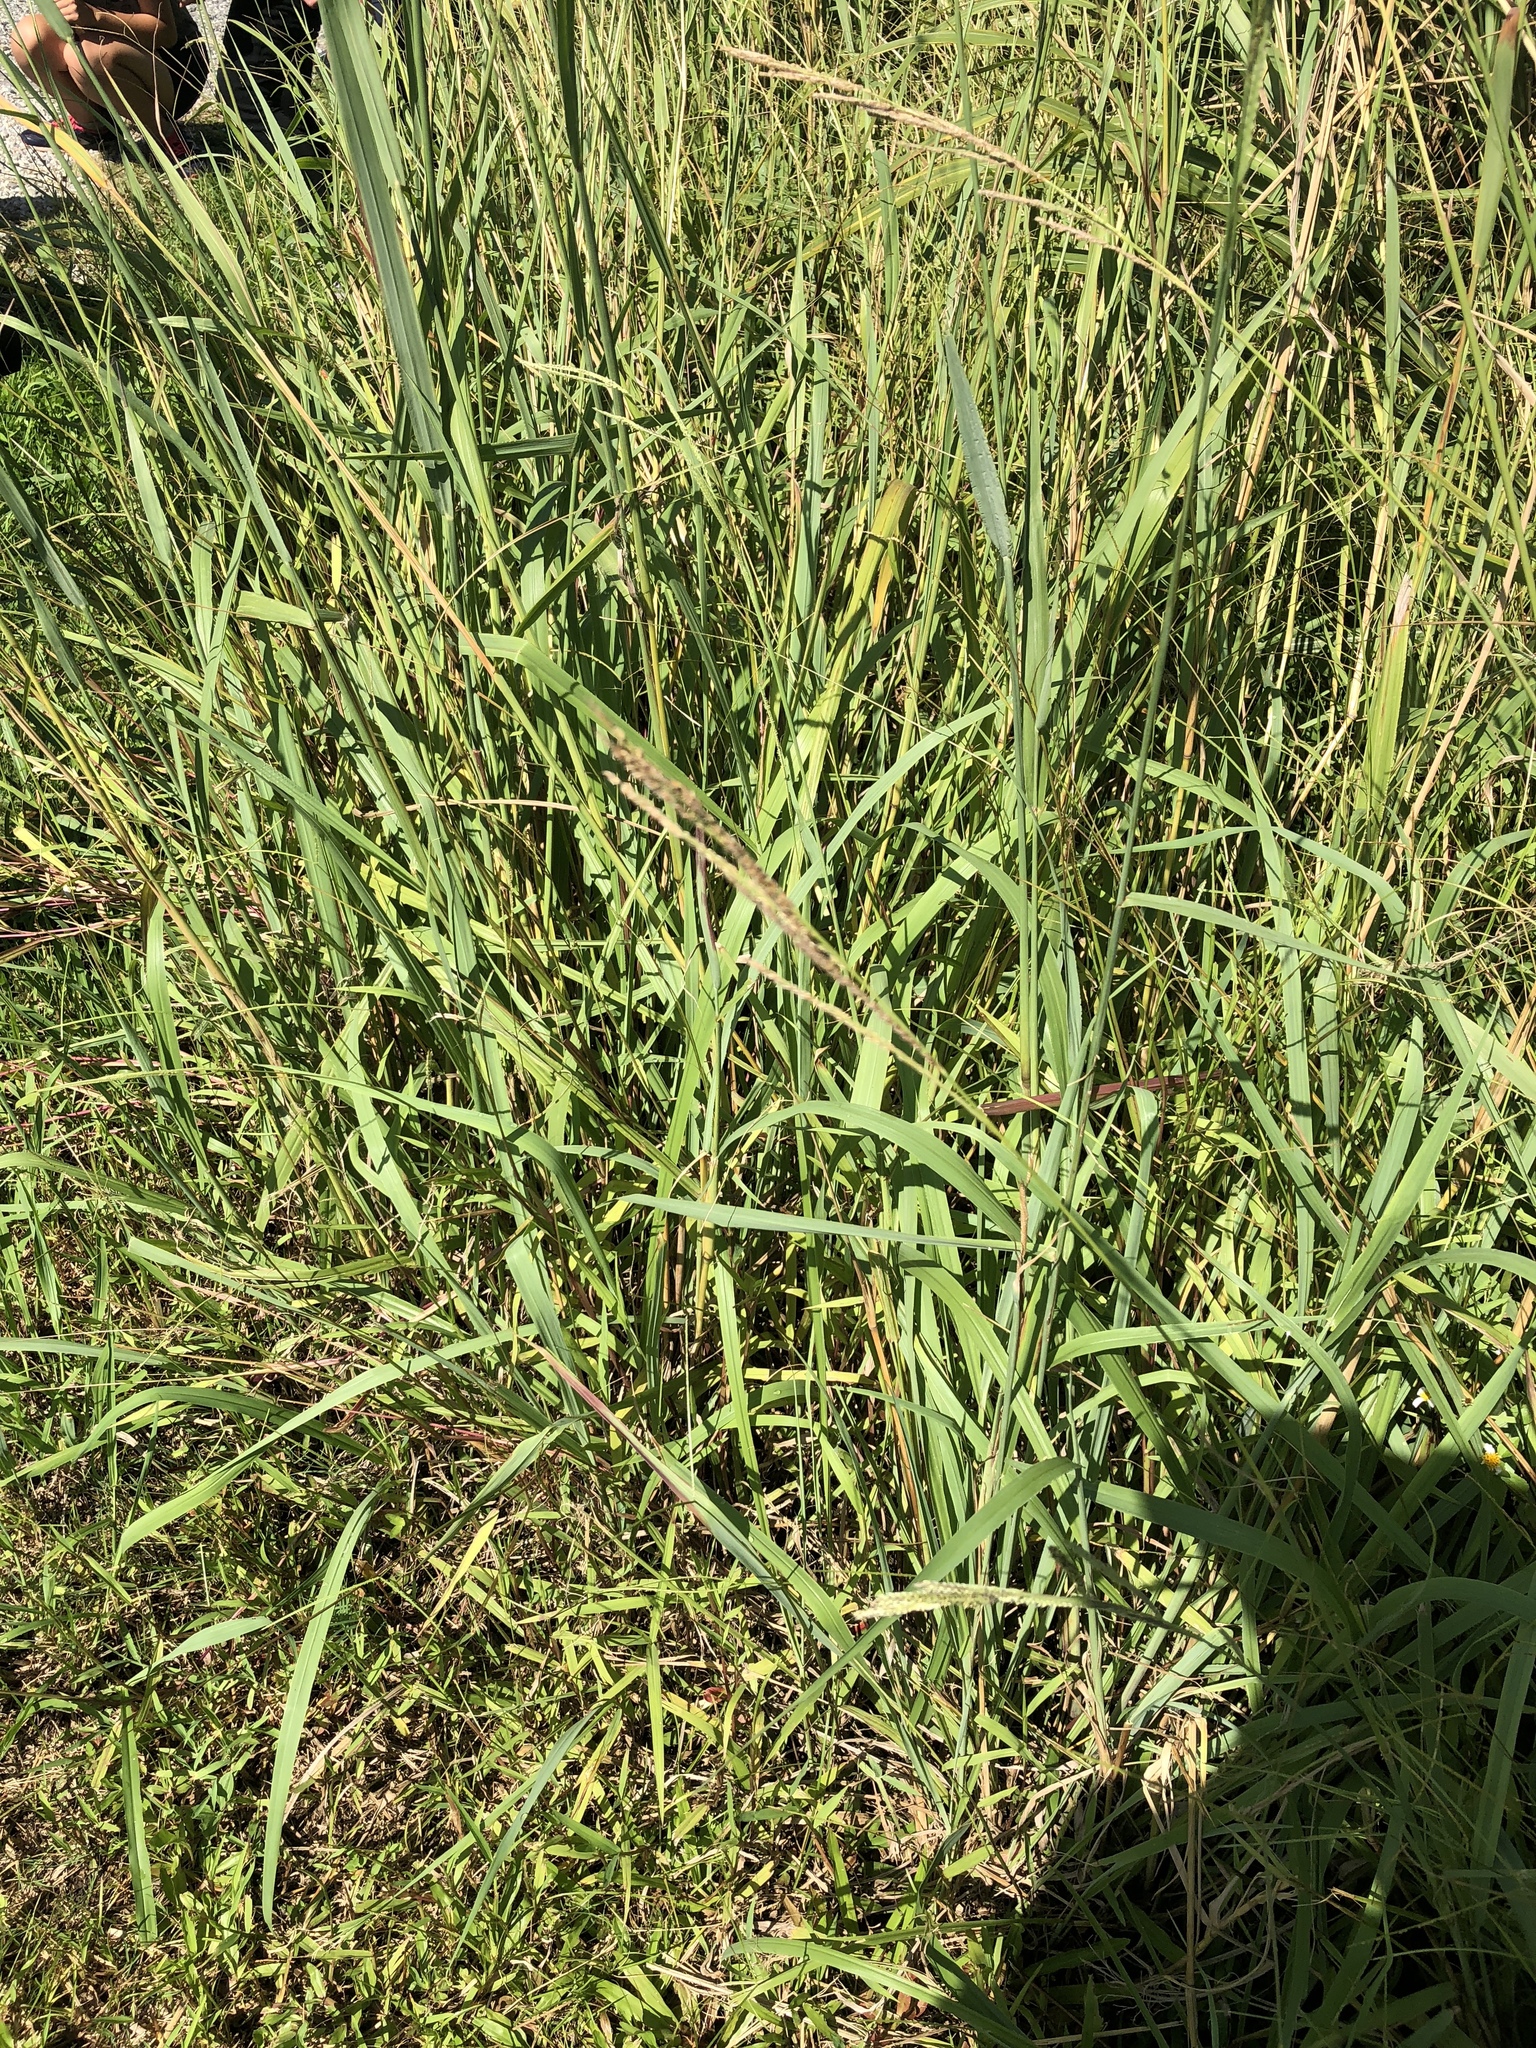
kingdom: Plantae
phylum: Tracheophyta
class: Liliopsida
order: Poales
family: Poaceae
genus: Paspalum
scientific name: Paspalum urvillei
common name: Vasey's grass
